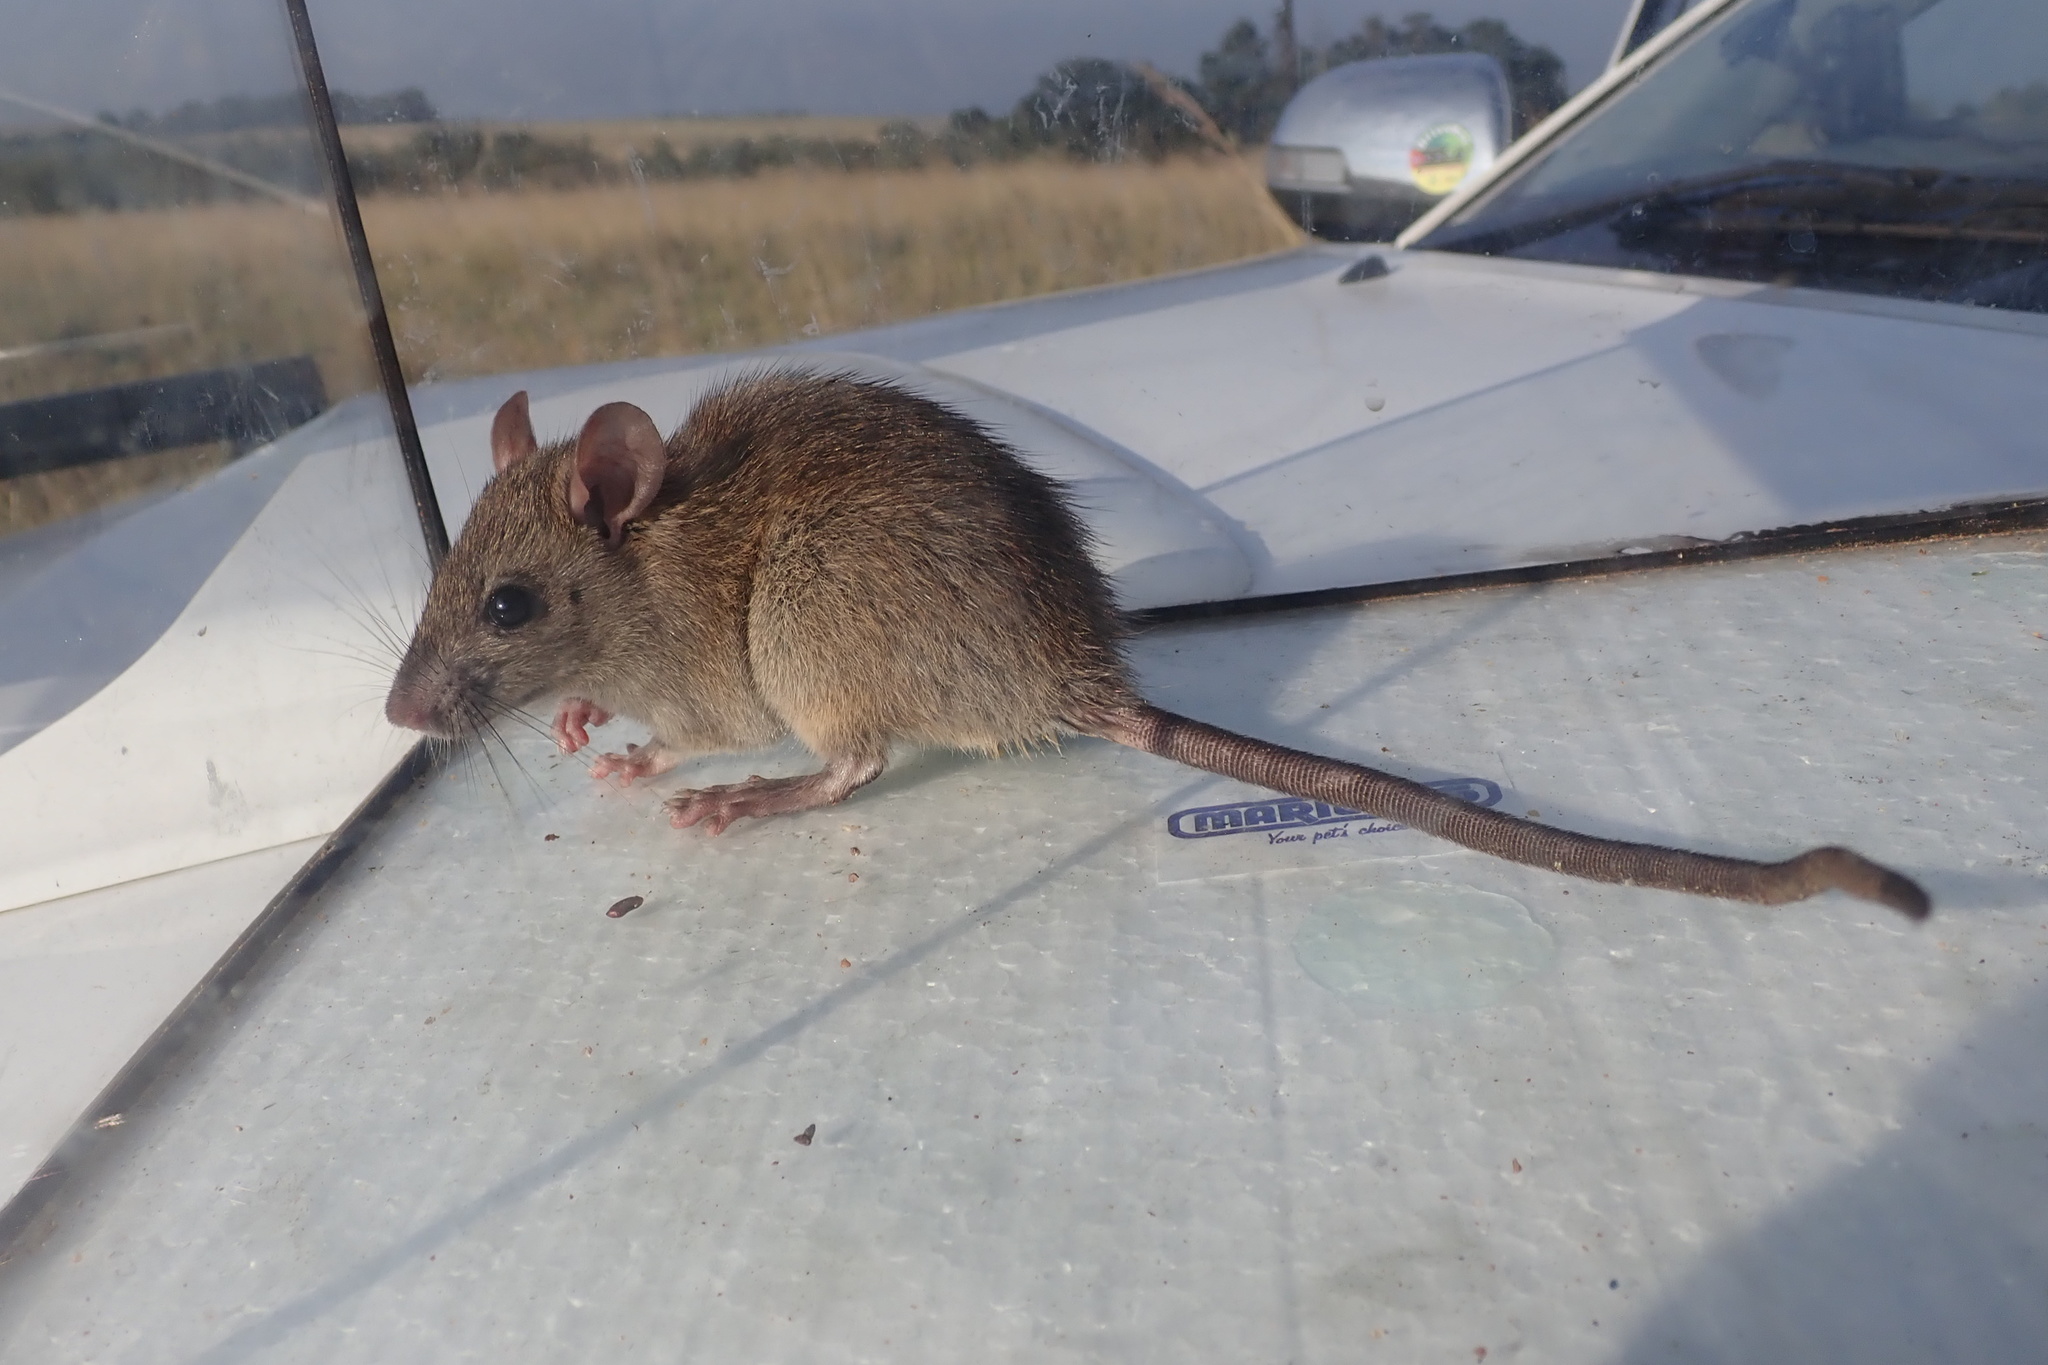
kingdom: Animalia
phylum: Chordata
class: Mammalia
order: Rodentia
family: Muridae
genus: Rattus
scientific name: Rattus rattus
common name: Black rat
